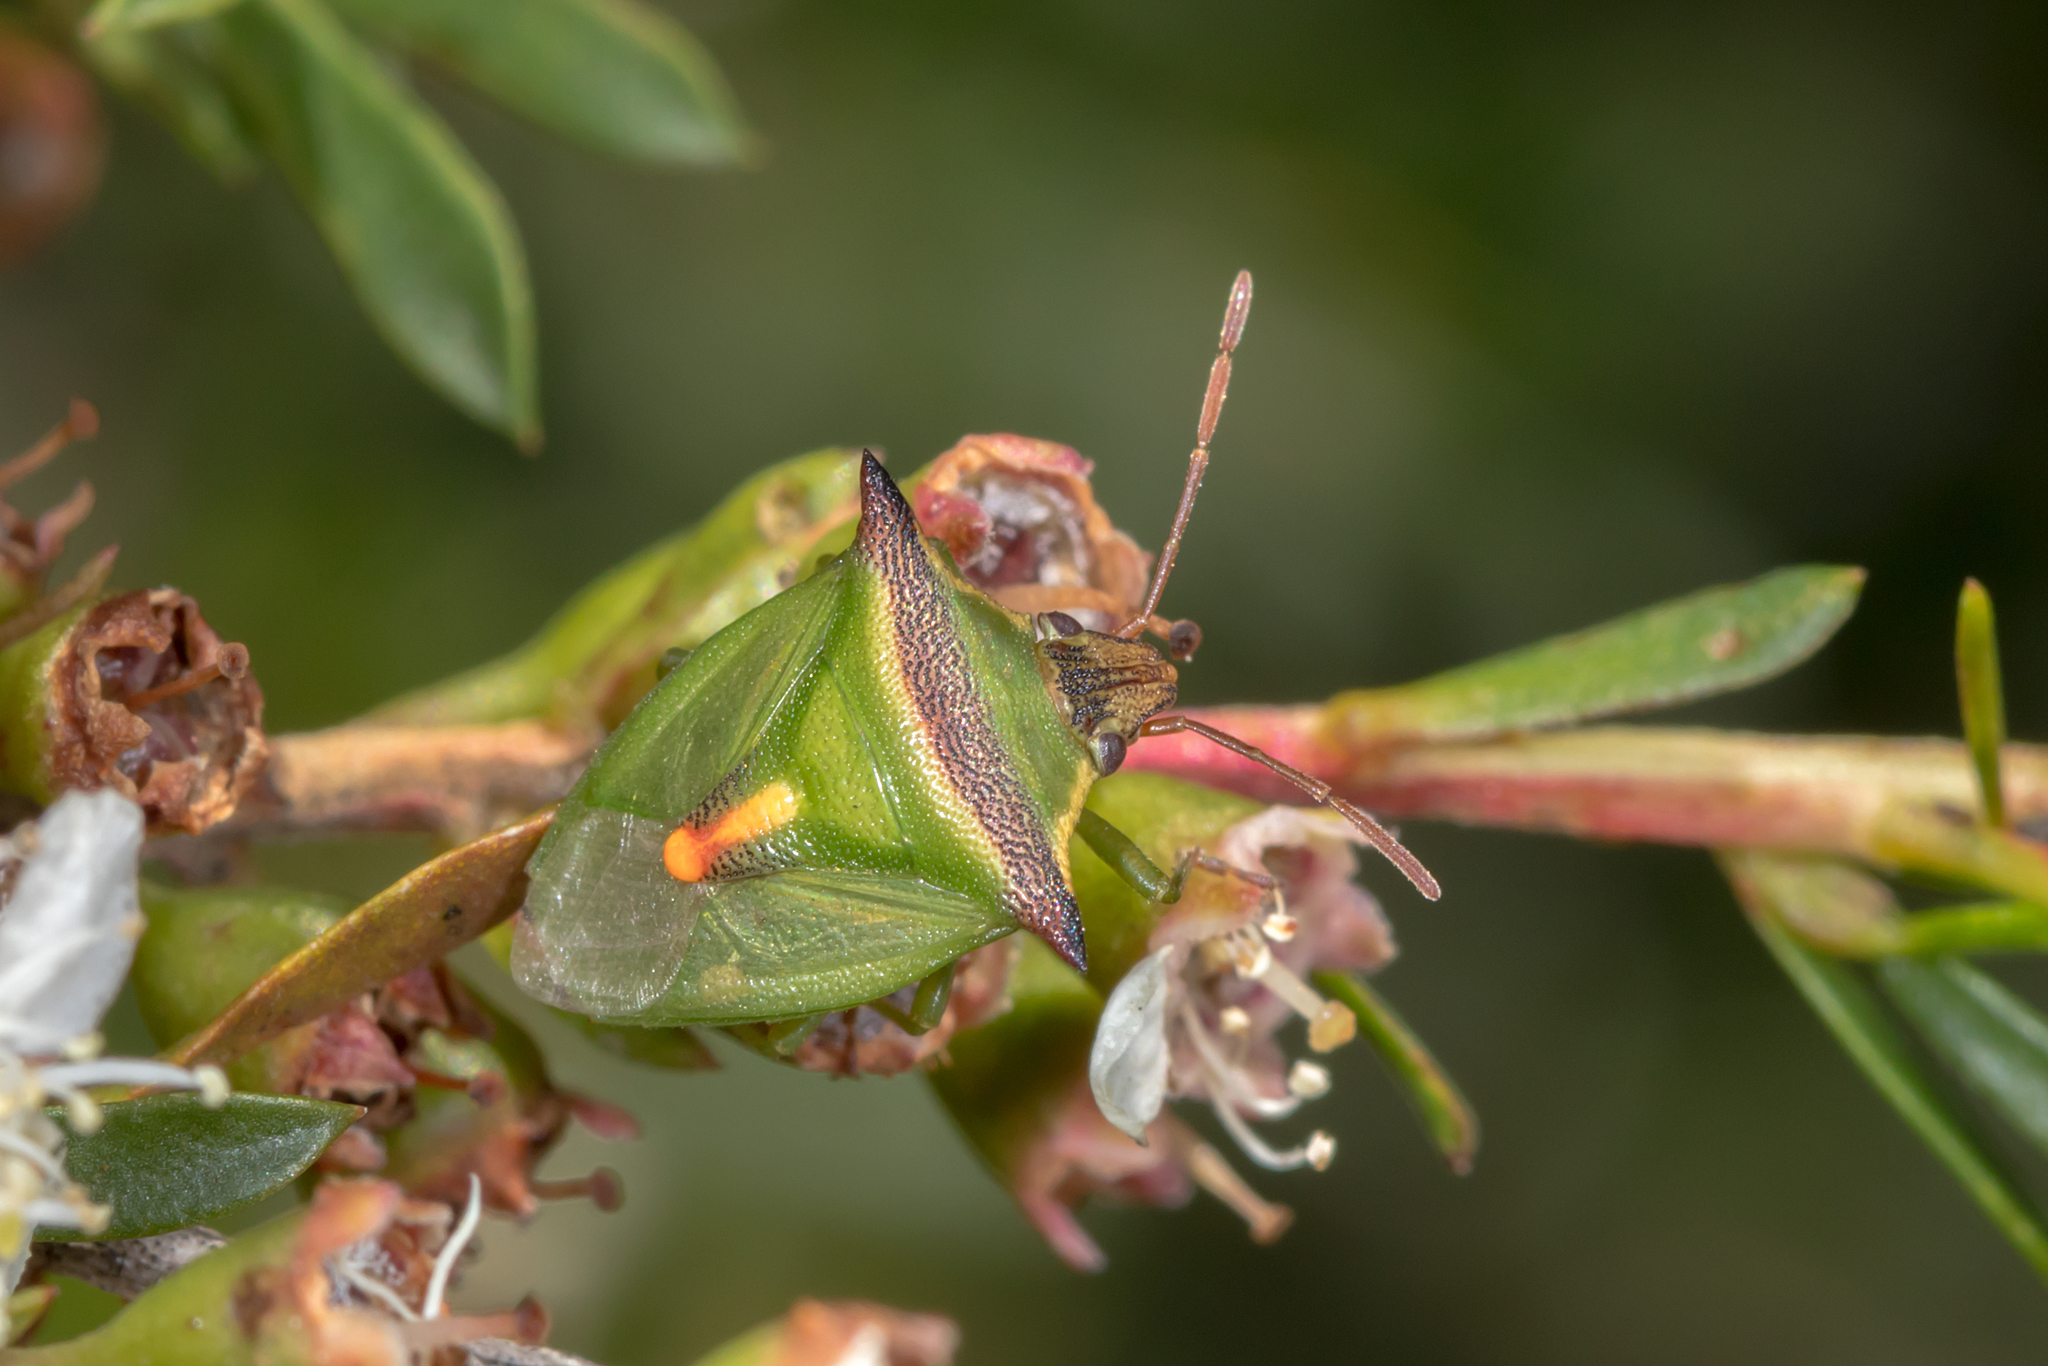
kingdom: Animalia
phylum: Arthropoda
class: Insecta
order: Hemiptera
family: Pentatomidae
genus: Cuspicona
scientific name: Cuspicona
